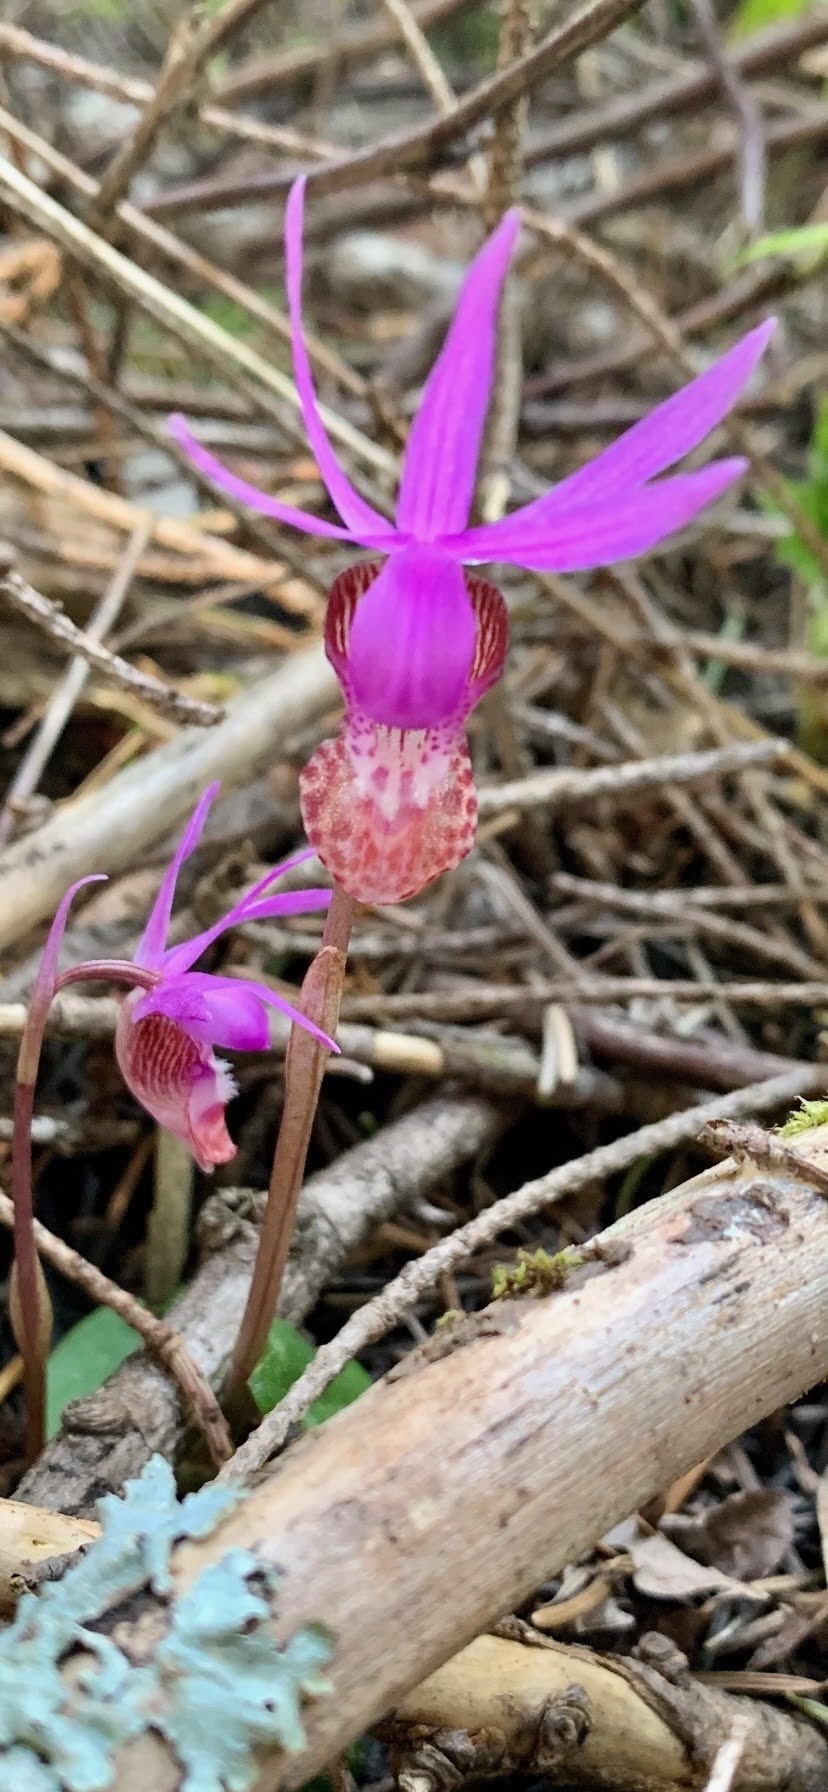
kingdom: Plantae
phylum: Tracheophyta
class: Liliopsida
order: Asparagales
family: Orchidaceae
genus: Calypso
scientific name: Calypso bulbosa
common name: Calypso
